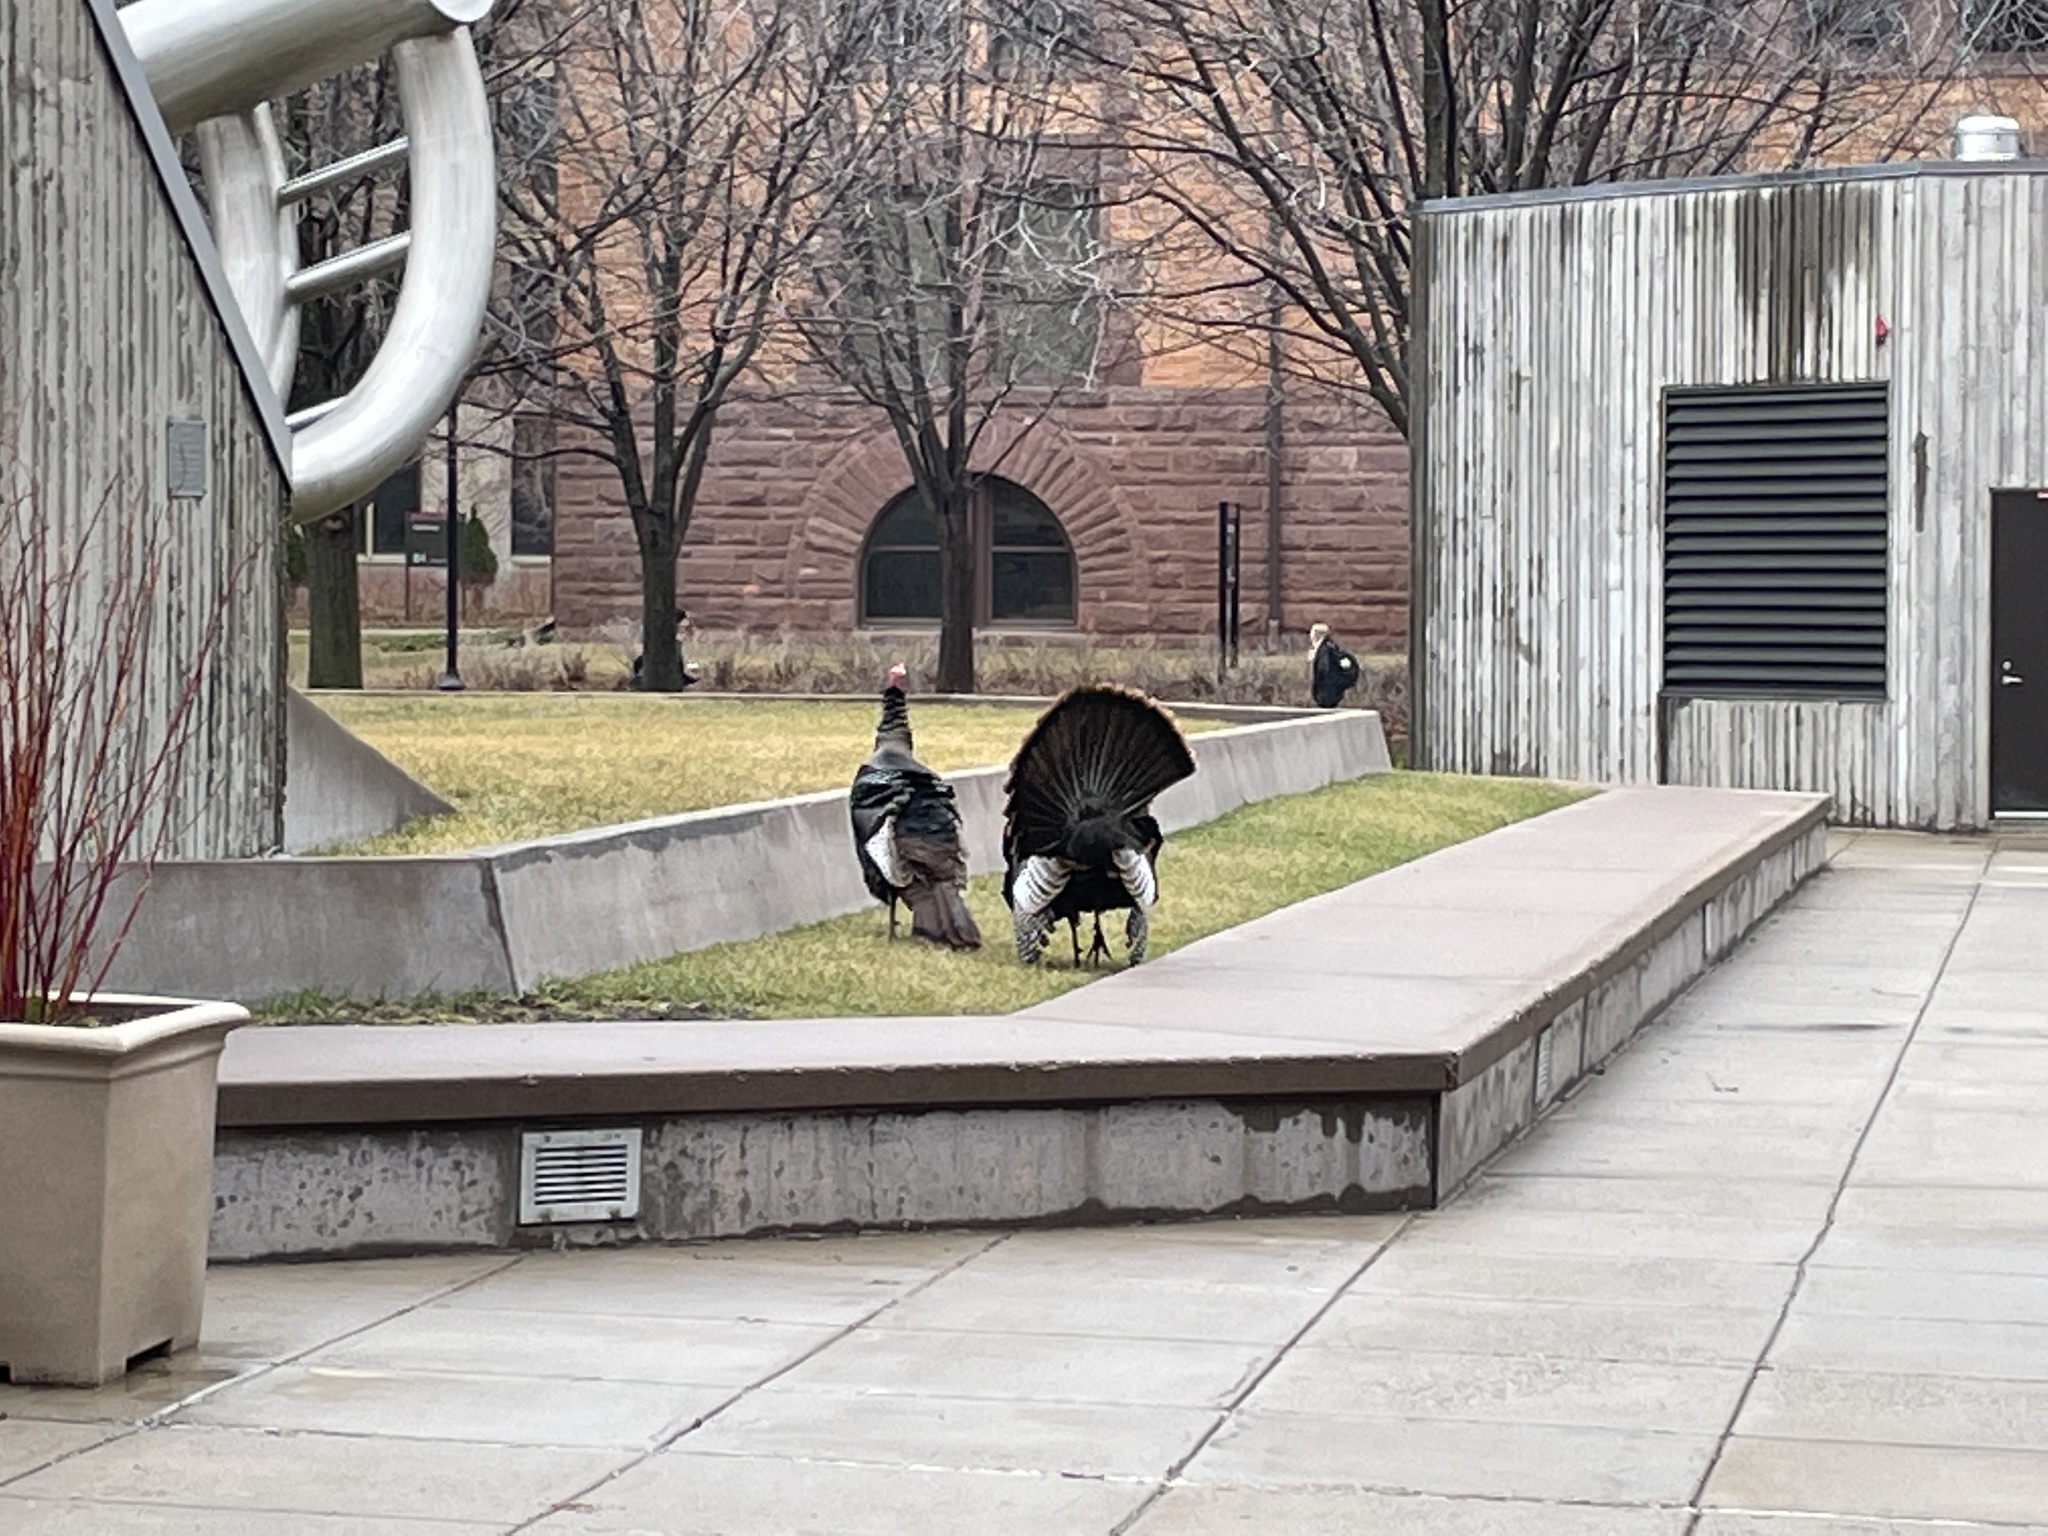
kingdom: Animalia
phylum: Chordata
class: Aves
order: Galliformes
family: Phasianidae
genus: Meleagris
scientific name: Meleagris gallopavo
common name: Wild turkey
